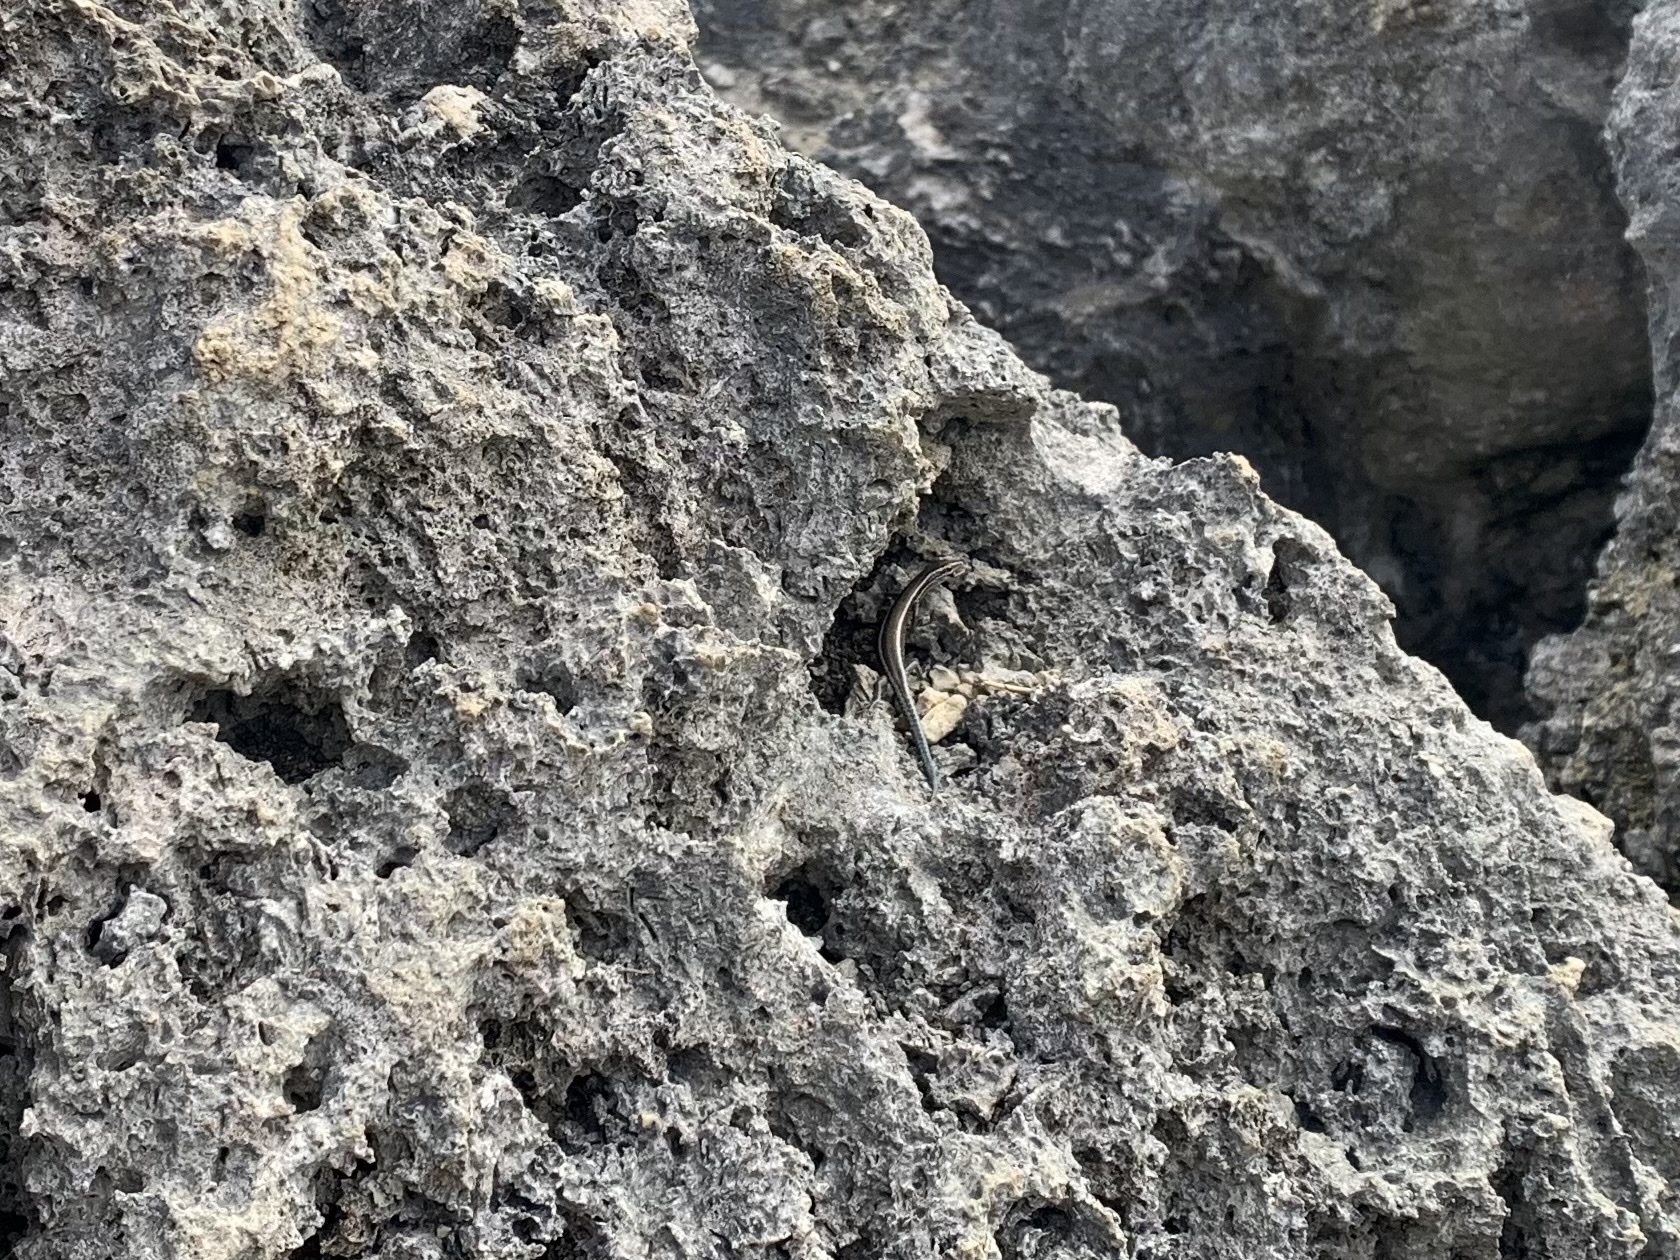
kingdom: Animalia
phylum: Chordata
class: Squamata
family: Scincidae
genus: Cryptoblepharus
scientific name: Cryptoblepharus novohebridicus
